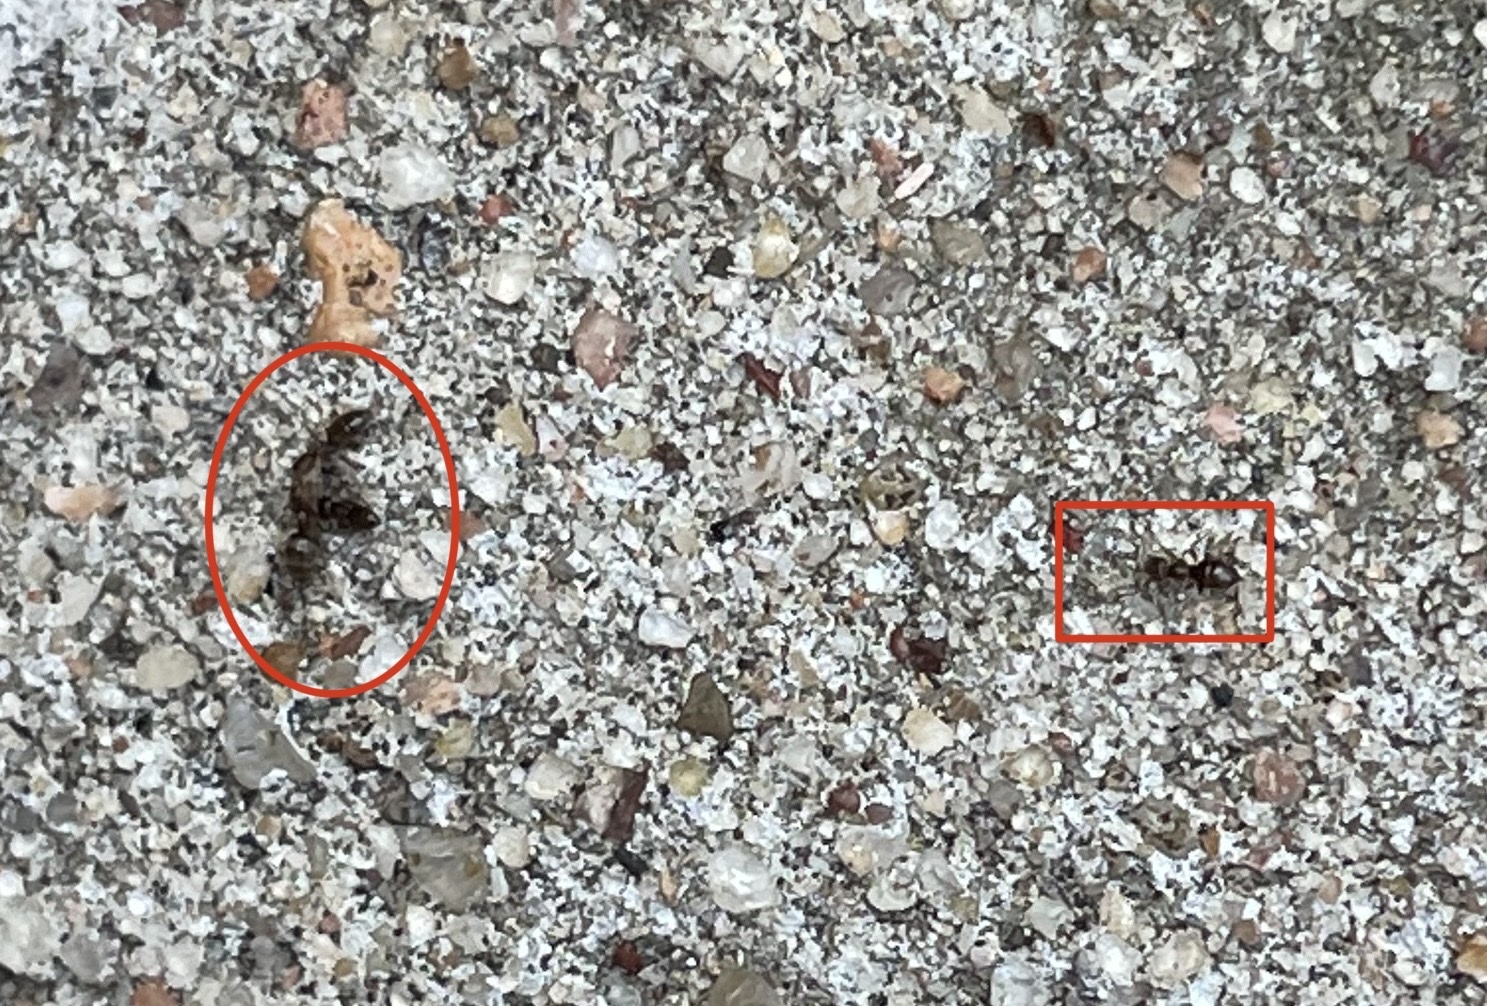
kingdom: Animalia
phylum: Arthropoda
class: Insecta
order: Hymenoptera
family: Formicidae
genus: Brachymyrmex
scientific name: Brachymyrmex patagonicus
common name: Dark rover ant
